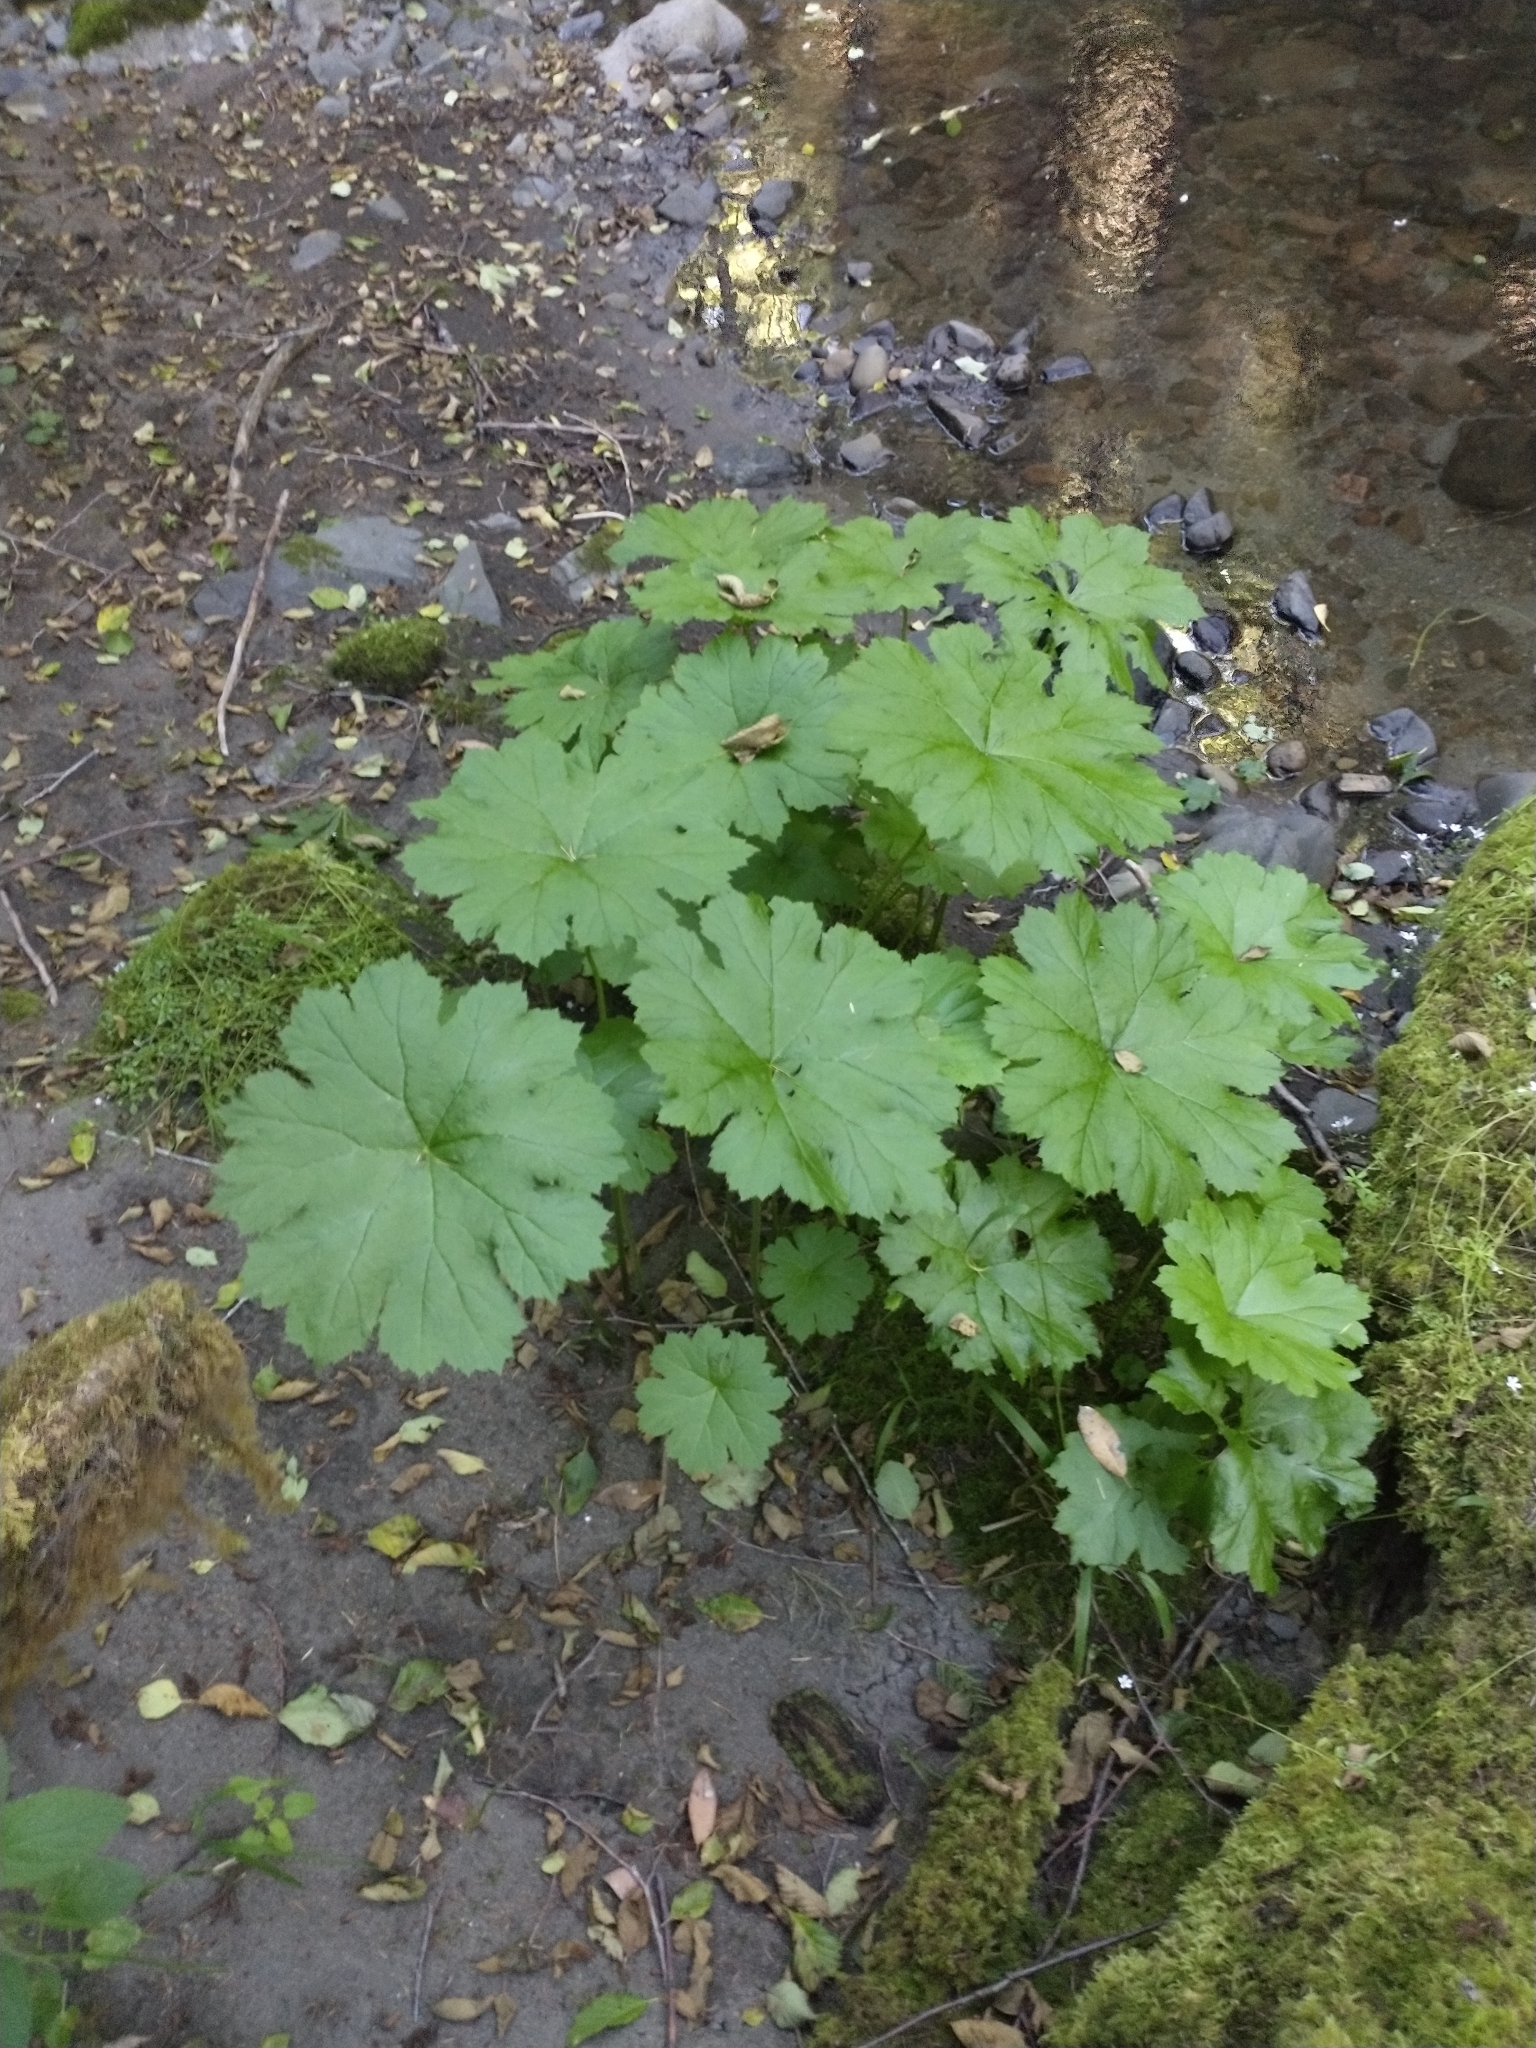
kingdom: Plantae
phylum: Tracheophyta
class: Magnoliopsida
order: Saxifragales
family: Saxifragaceae
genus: Darmera
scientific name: Darmera peltata
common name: Indian-rhubarb
